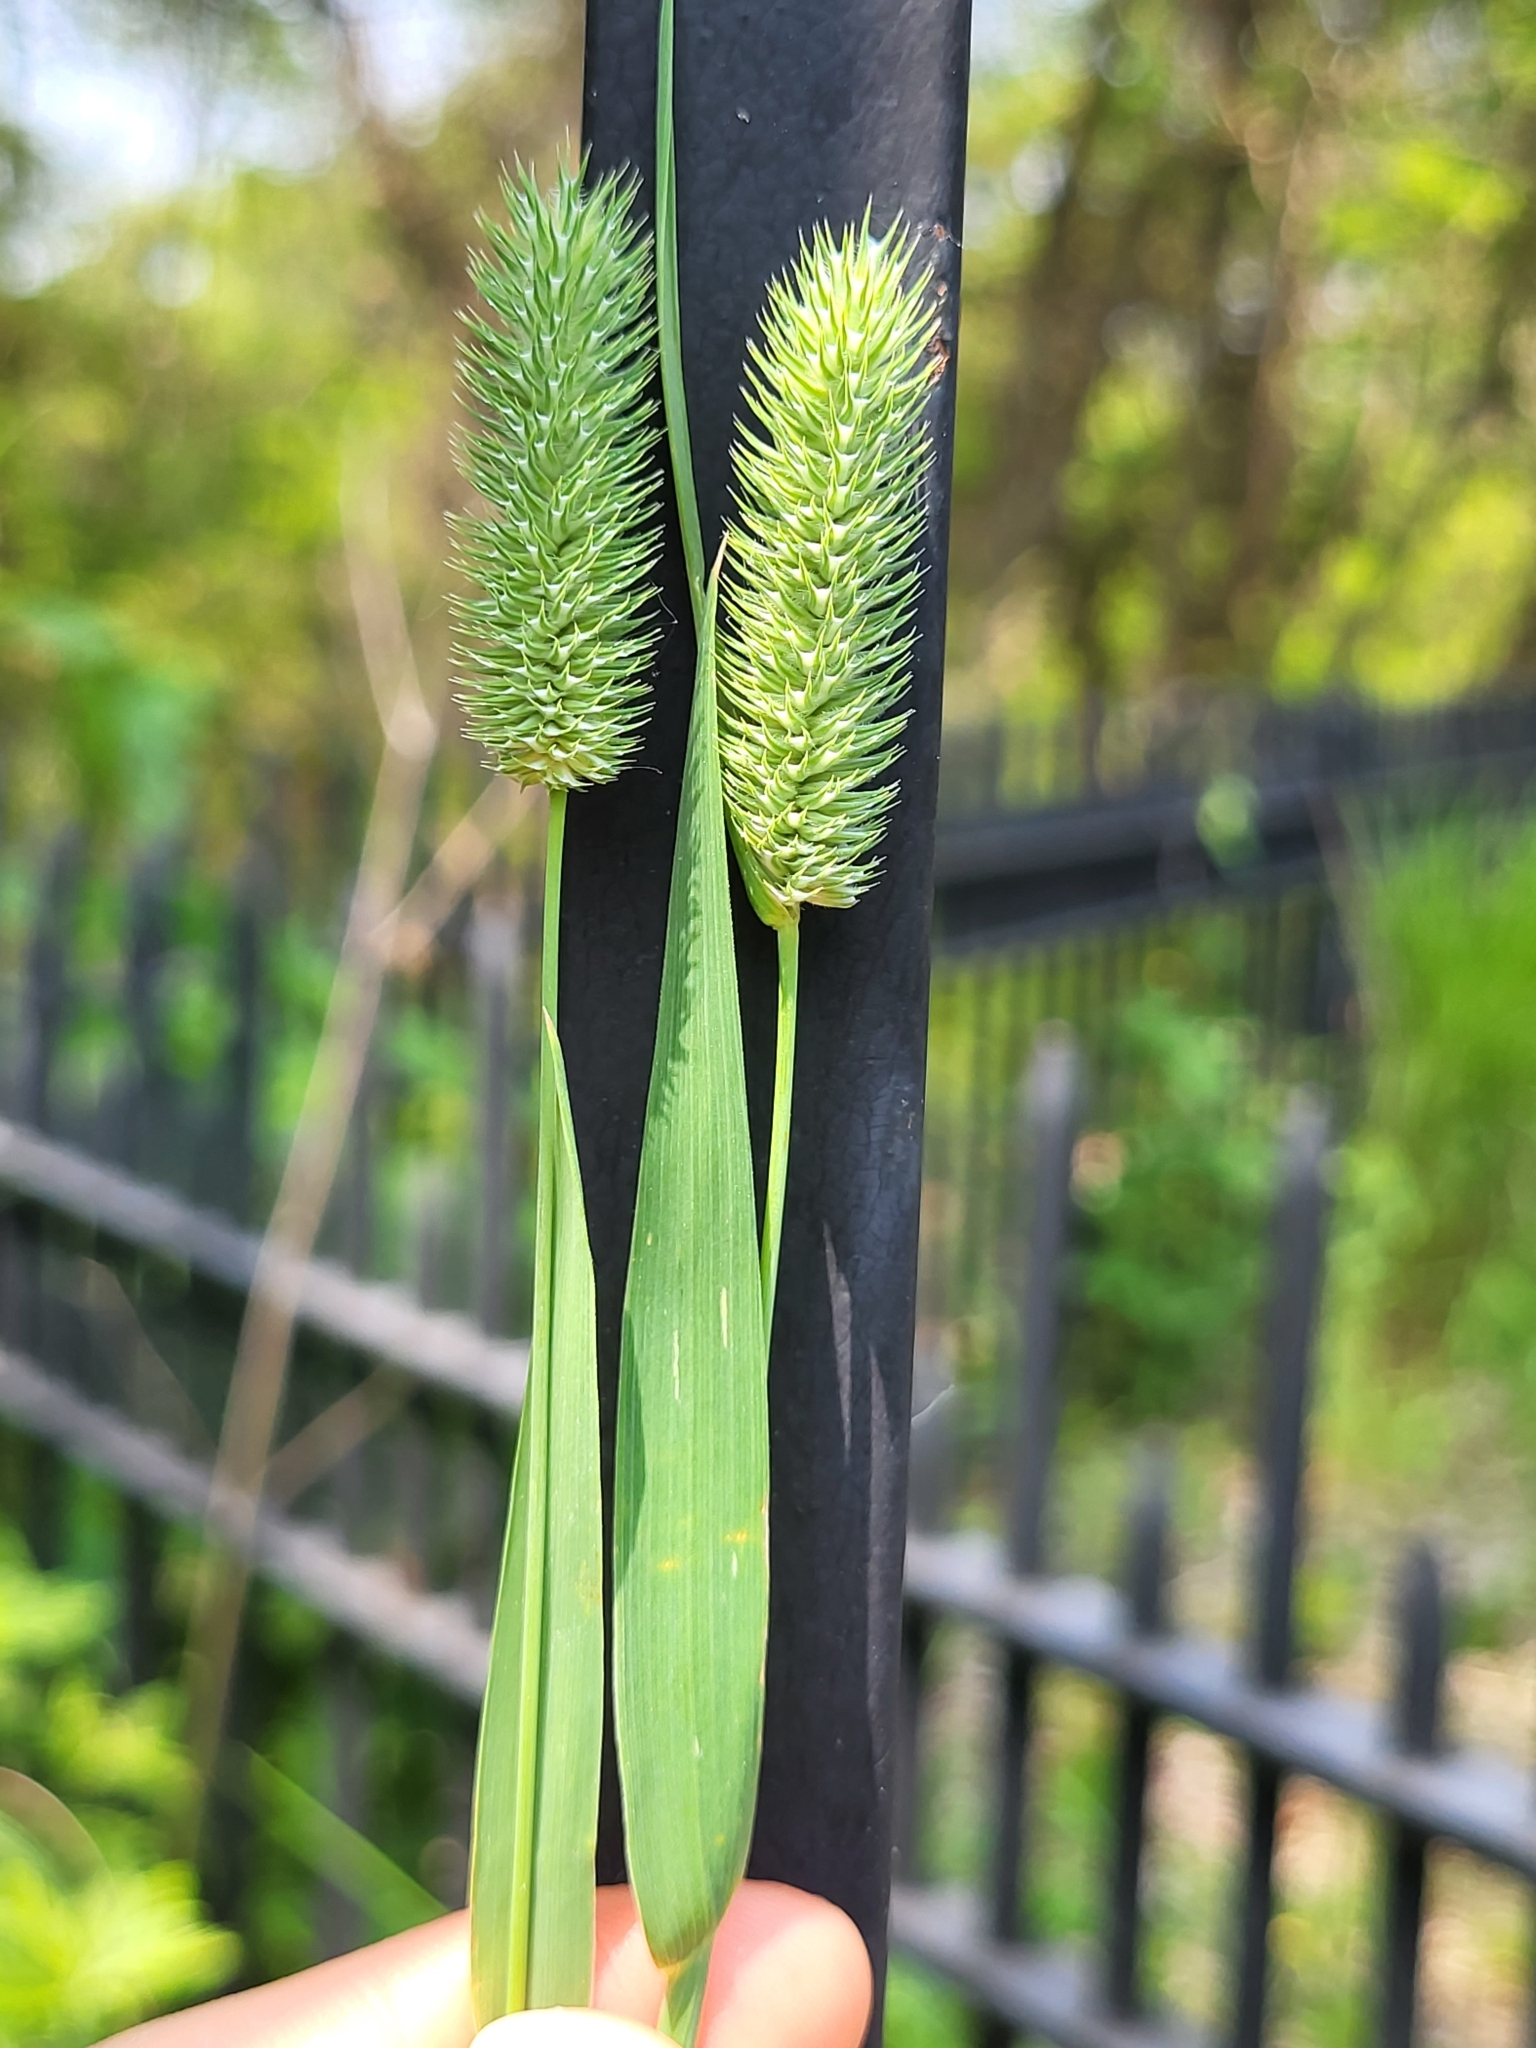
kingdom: Plantae
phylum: Tracheophyta
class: Liliopsida
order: Poales
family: Poaceae
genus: Phleum
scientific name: Phleum pratense
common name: Timothy grass
